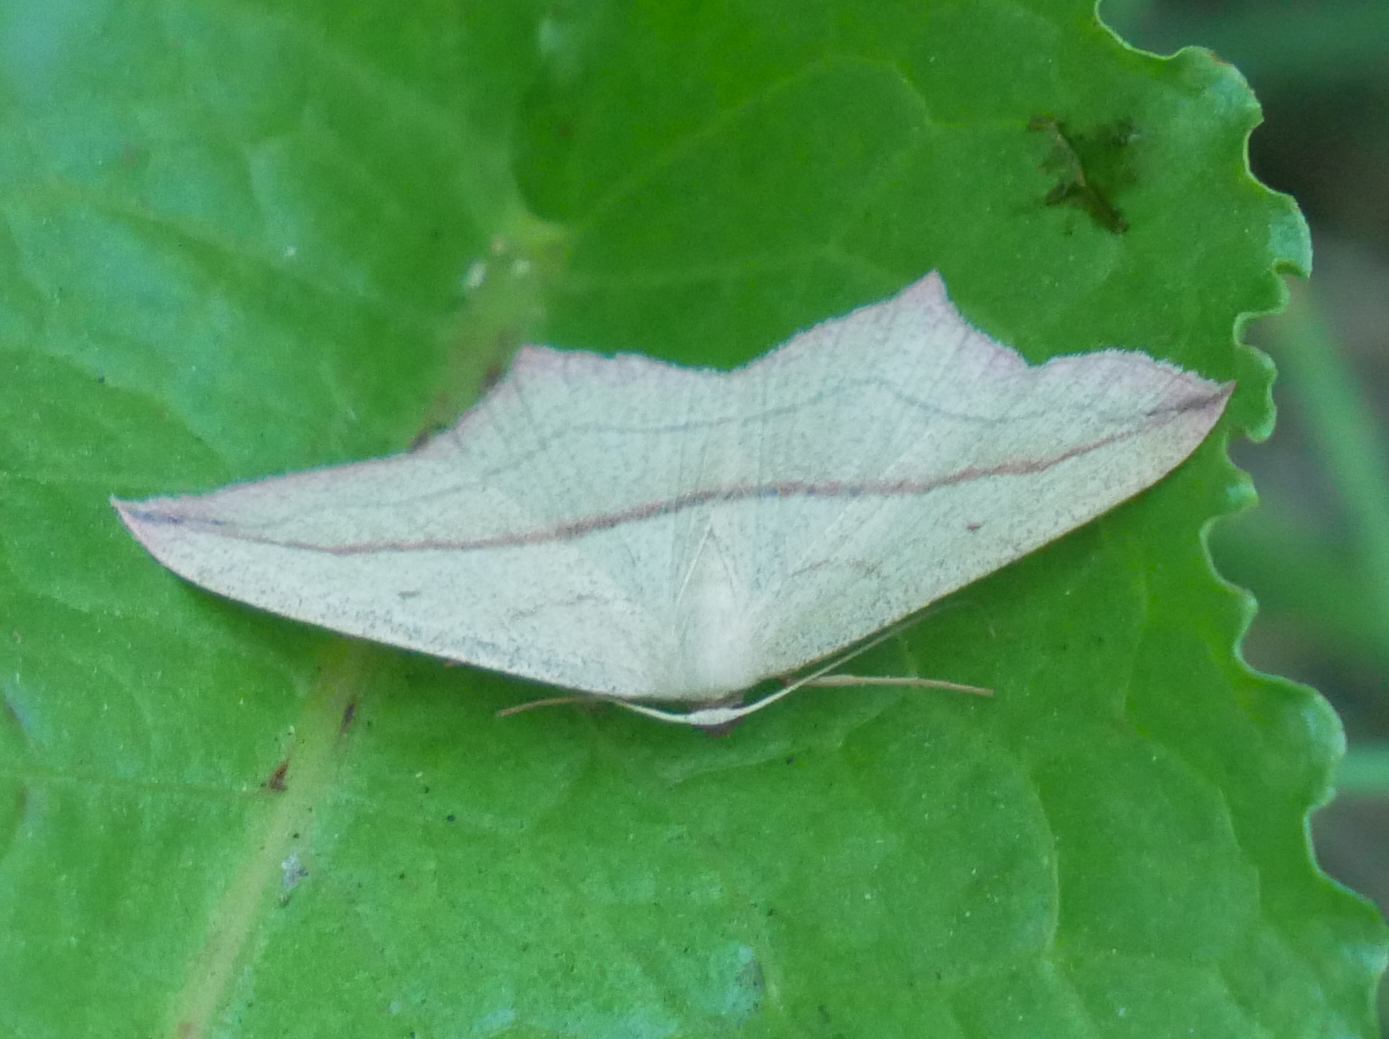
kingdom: Animalia
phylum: Arthropoda
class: Insecta
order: Lepidoptera
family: Geometridae
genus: Timandra
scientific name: Timandra comae
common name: Blood-vein
